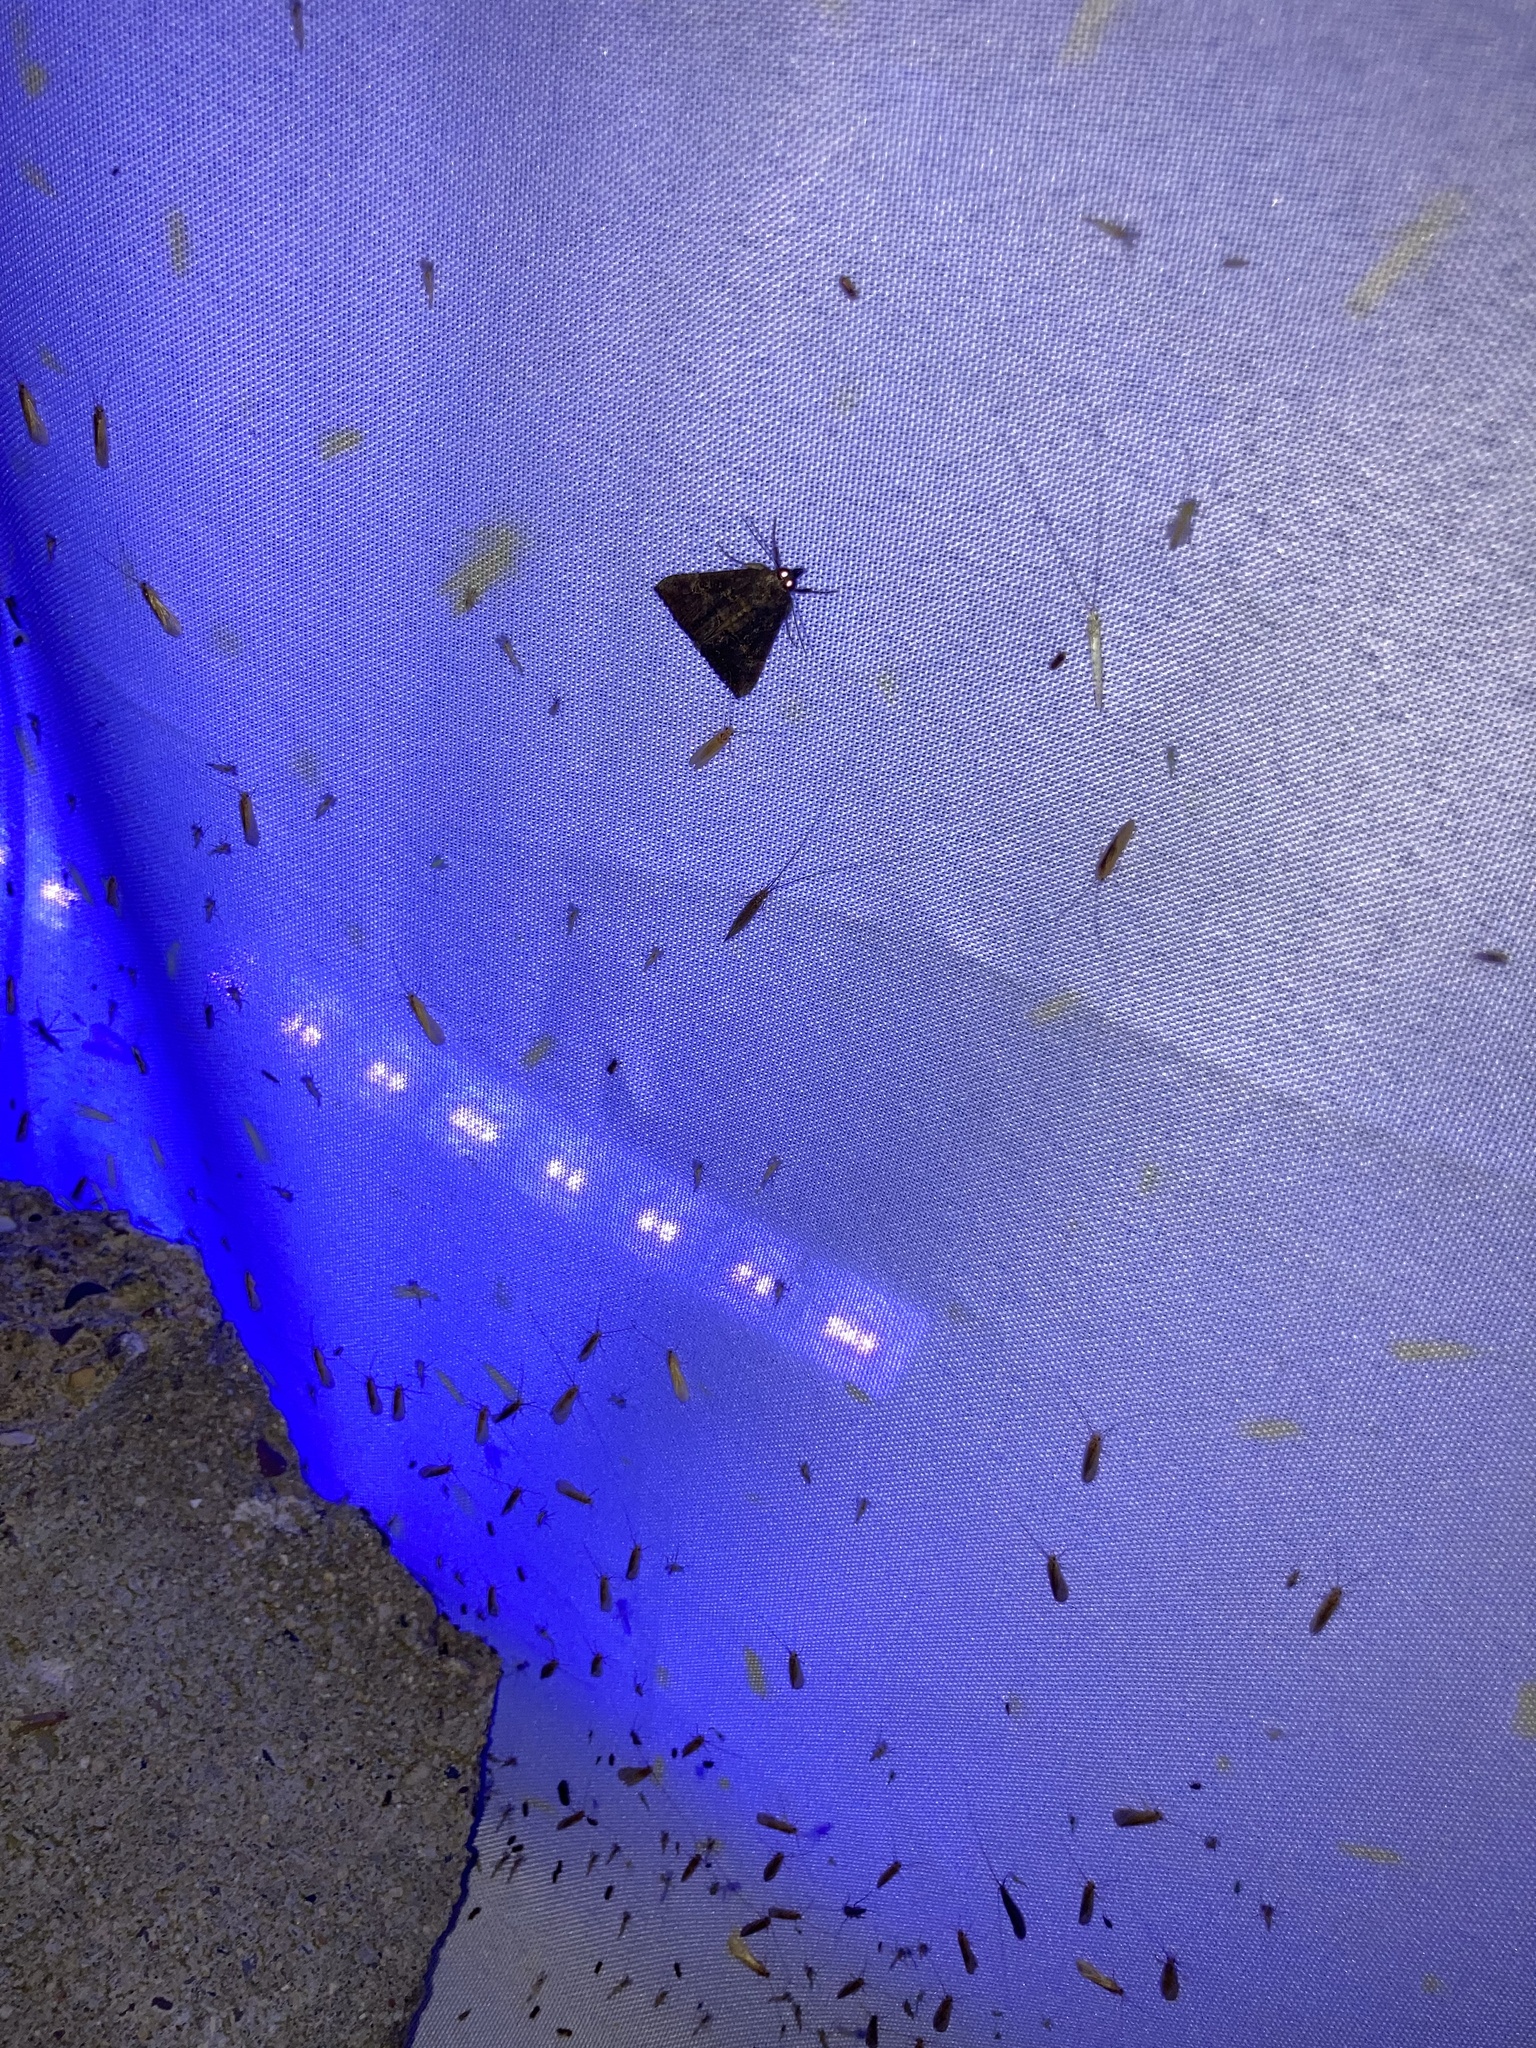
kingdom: Animalia
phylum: Arthropoda
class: Insecta
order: Lepidoptera
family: Erebidae
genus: Hypena
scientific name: Hypena scabra
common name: Green cloverworm
